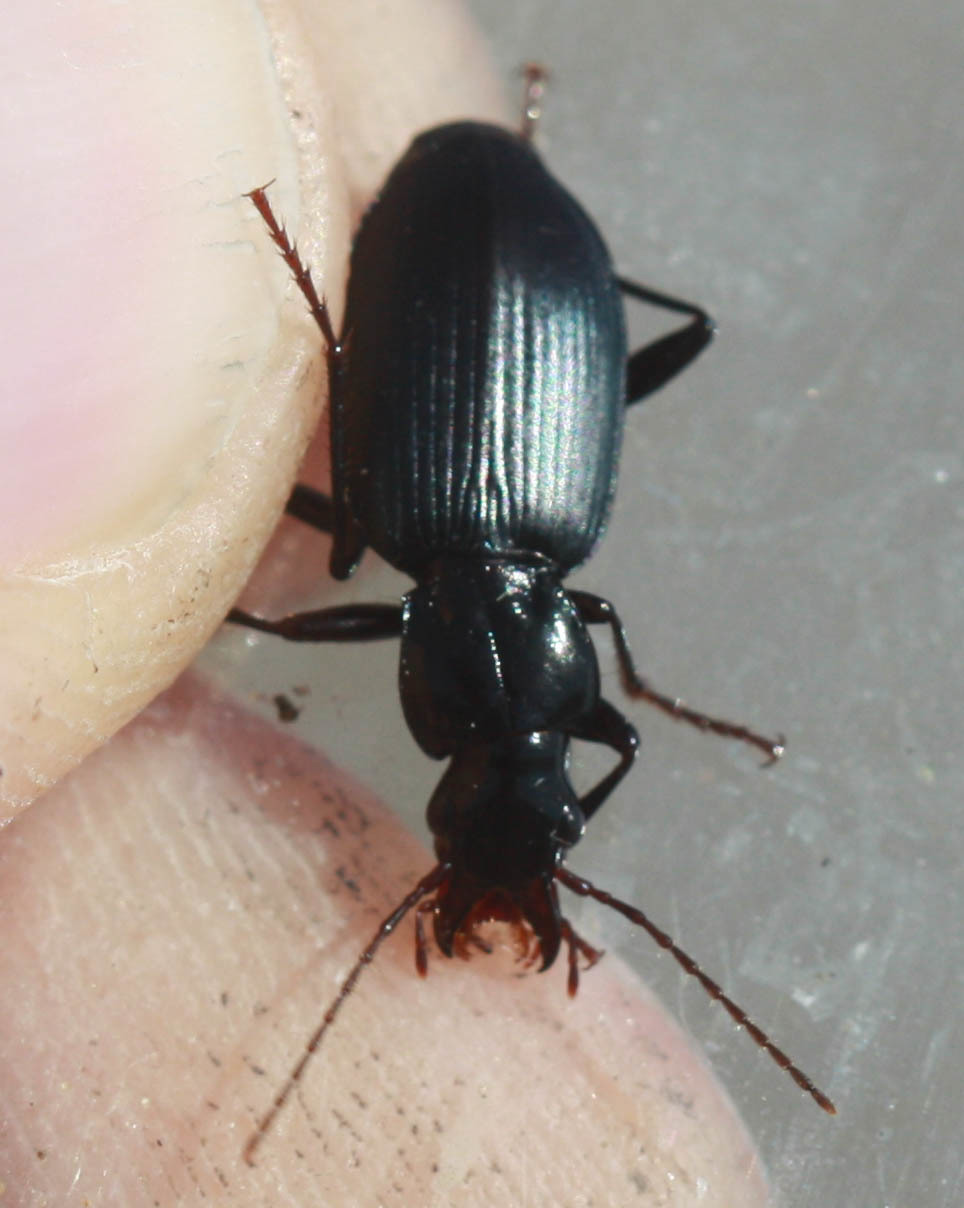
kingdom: Animalia
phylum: Arthropoda
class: Insecta
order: Coleoptera
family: Carabidae
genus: Laemostenus
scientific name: Laemostenus complanatus
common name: Cosmopolitan ground beetle
